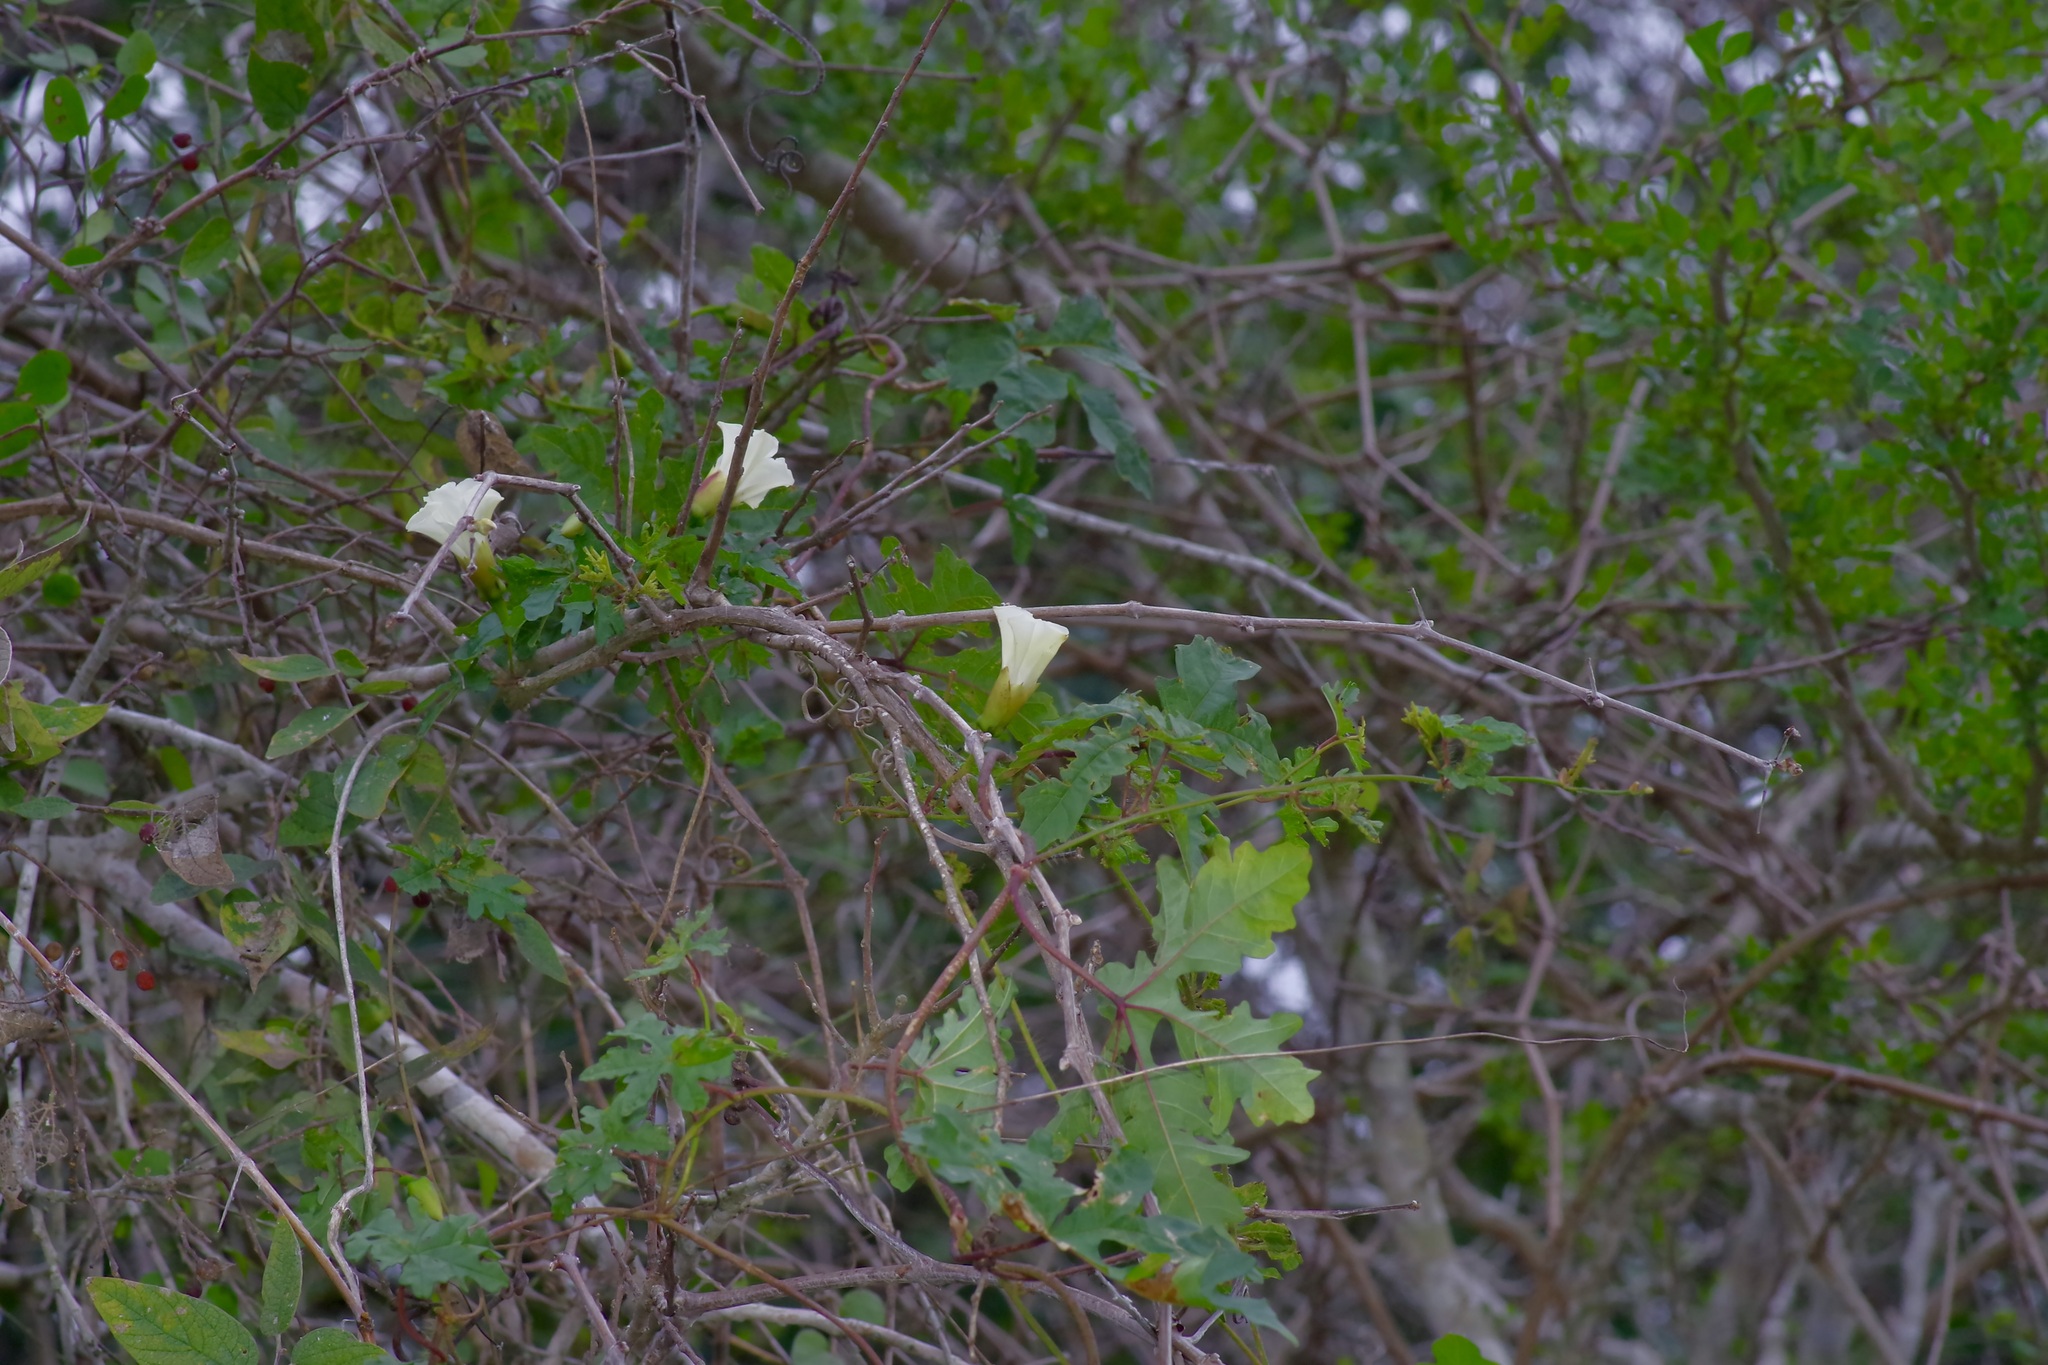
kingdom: Plantae
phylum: Tracheophyta
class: Magnoliopsida
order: Solanales
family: Convolvulaceae
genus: Distimake
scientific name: Distimake dissectus
